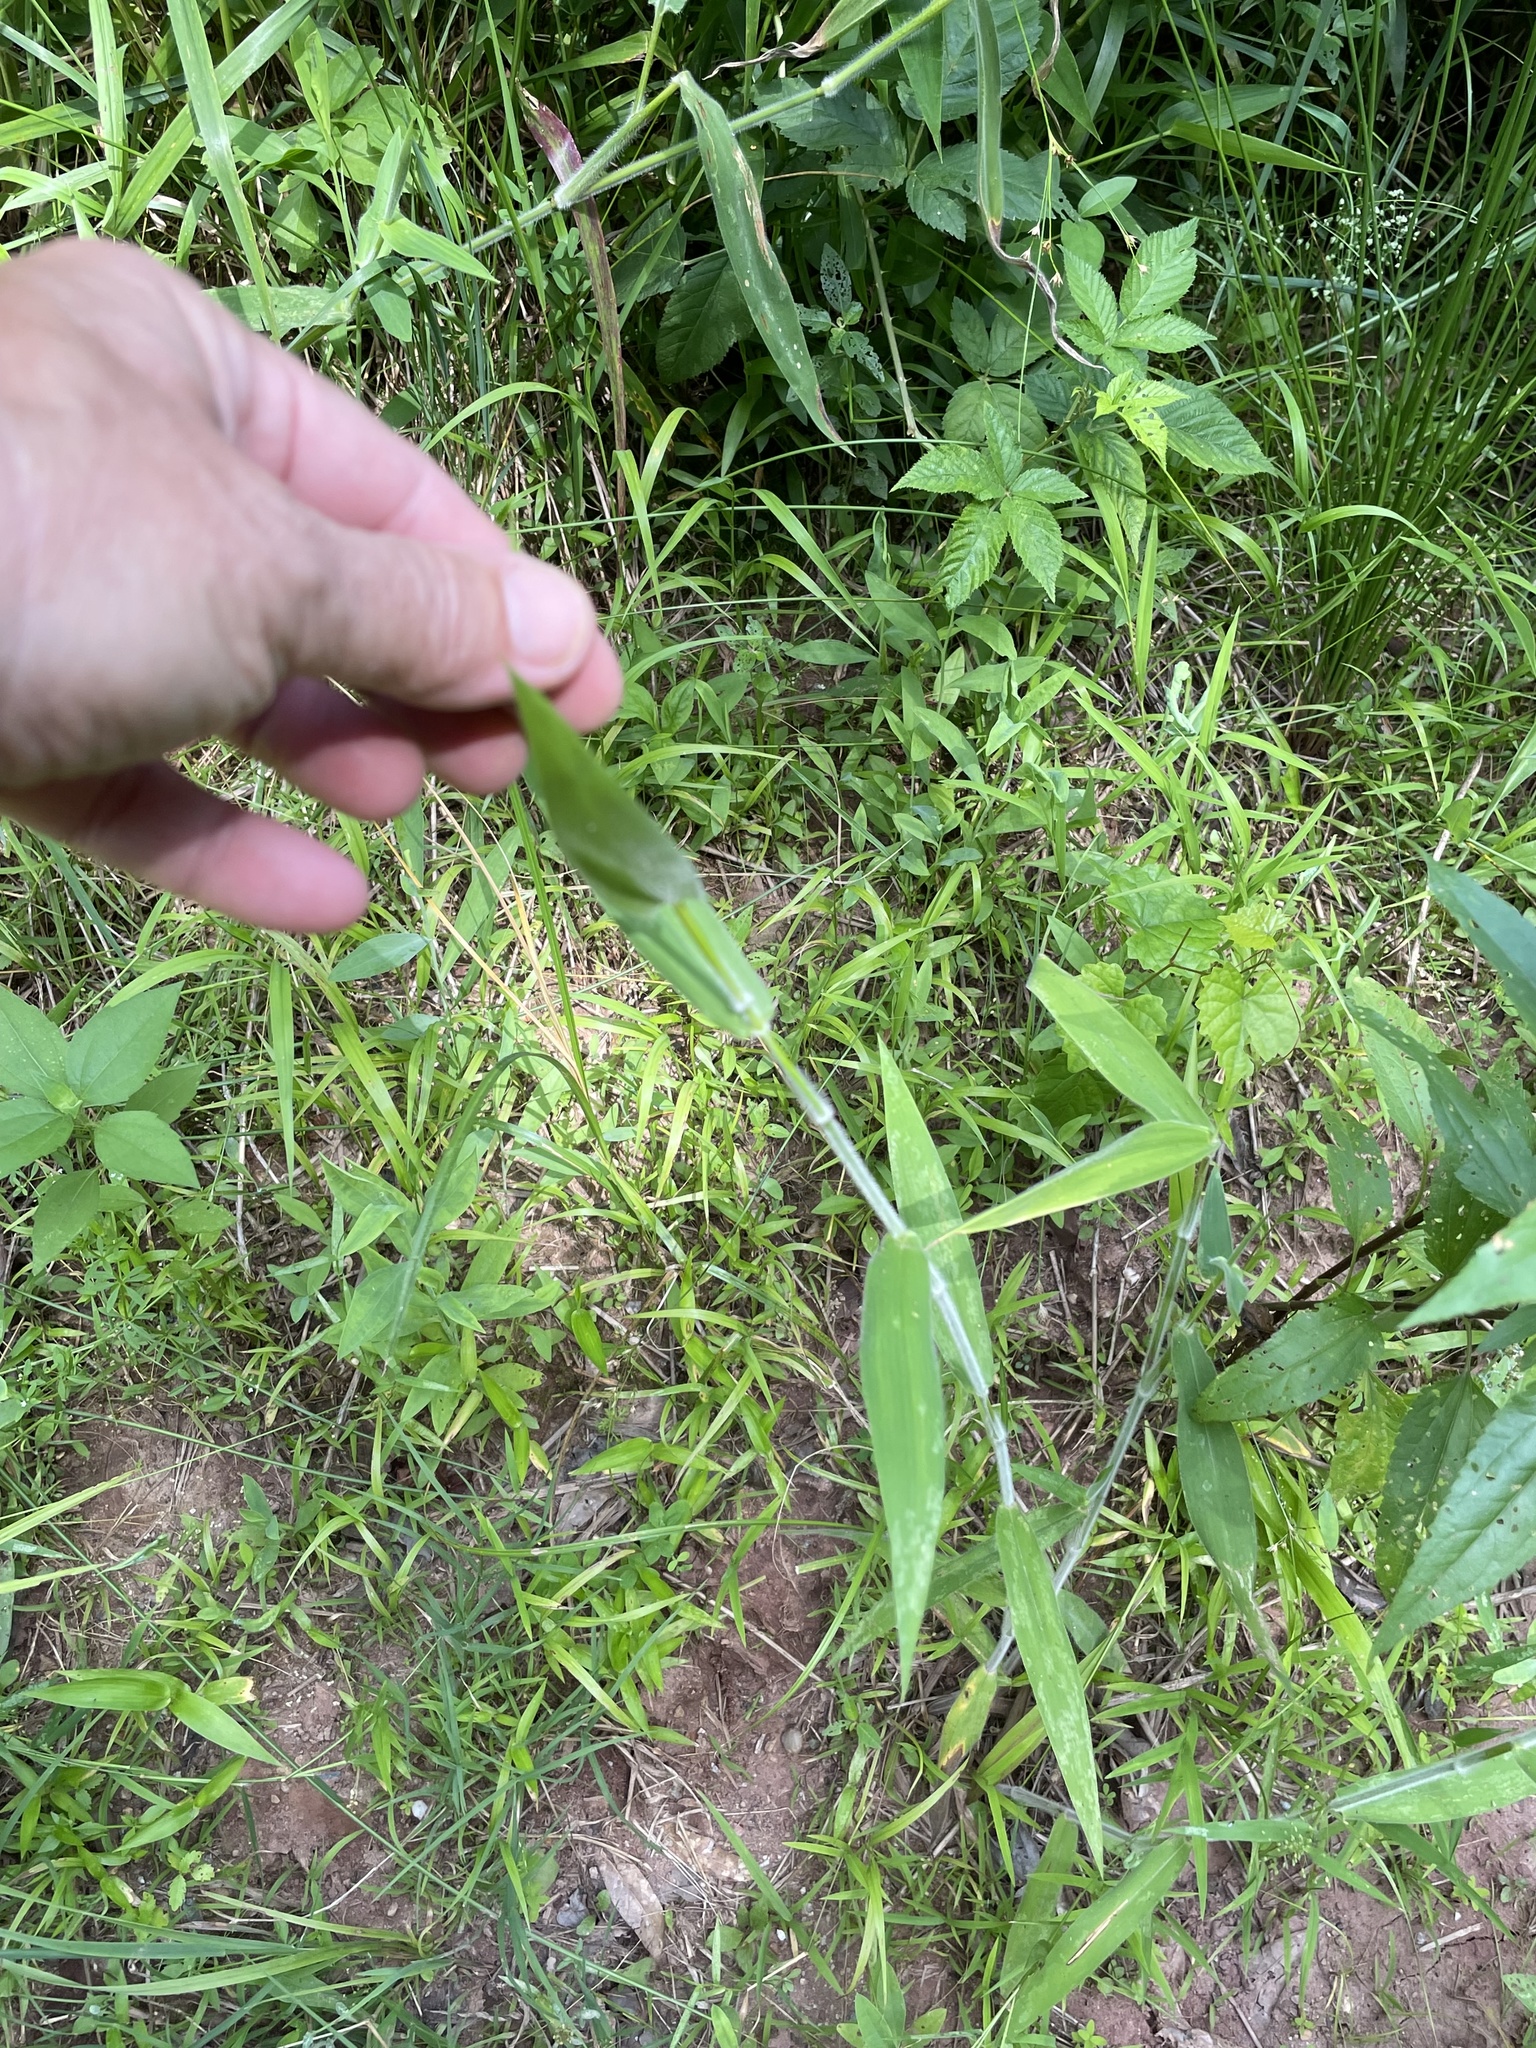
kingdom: Plantae
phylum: Tracheophyta
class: Liliopsida
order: Poales
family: Poaceae
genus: Dichanthelium
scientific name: Dichanthelium scoparium
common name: Velvety panic grass
